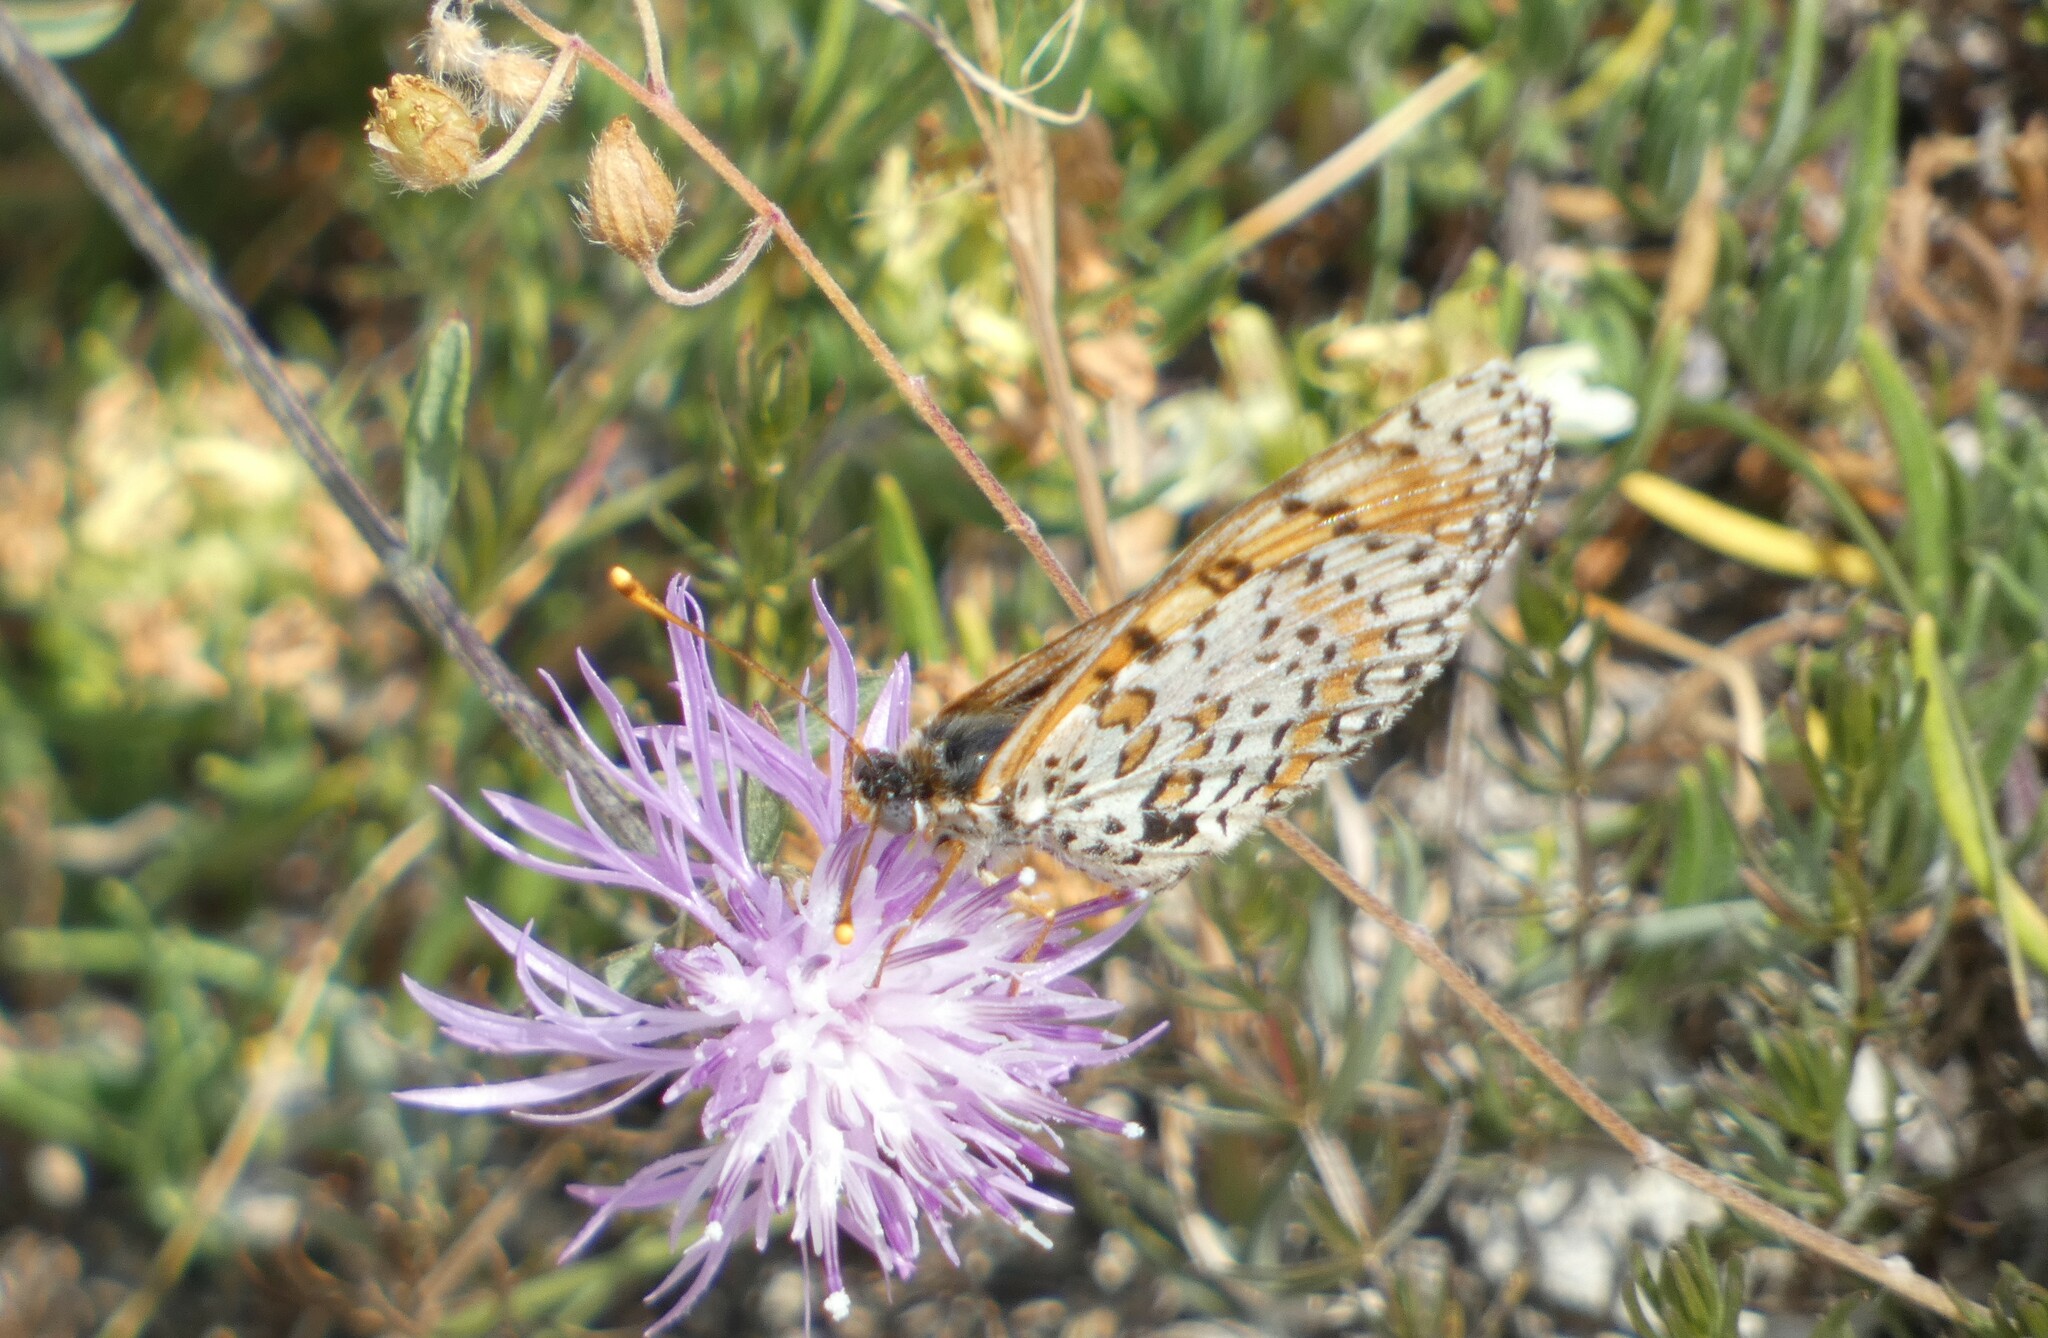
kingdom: Animalia
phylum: Arthropoda
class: Insecta
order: Lepidoptera
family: Nymphalidae
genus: Melitaea
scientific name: Melitaea didyma
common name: Spotted fritillary
